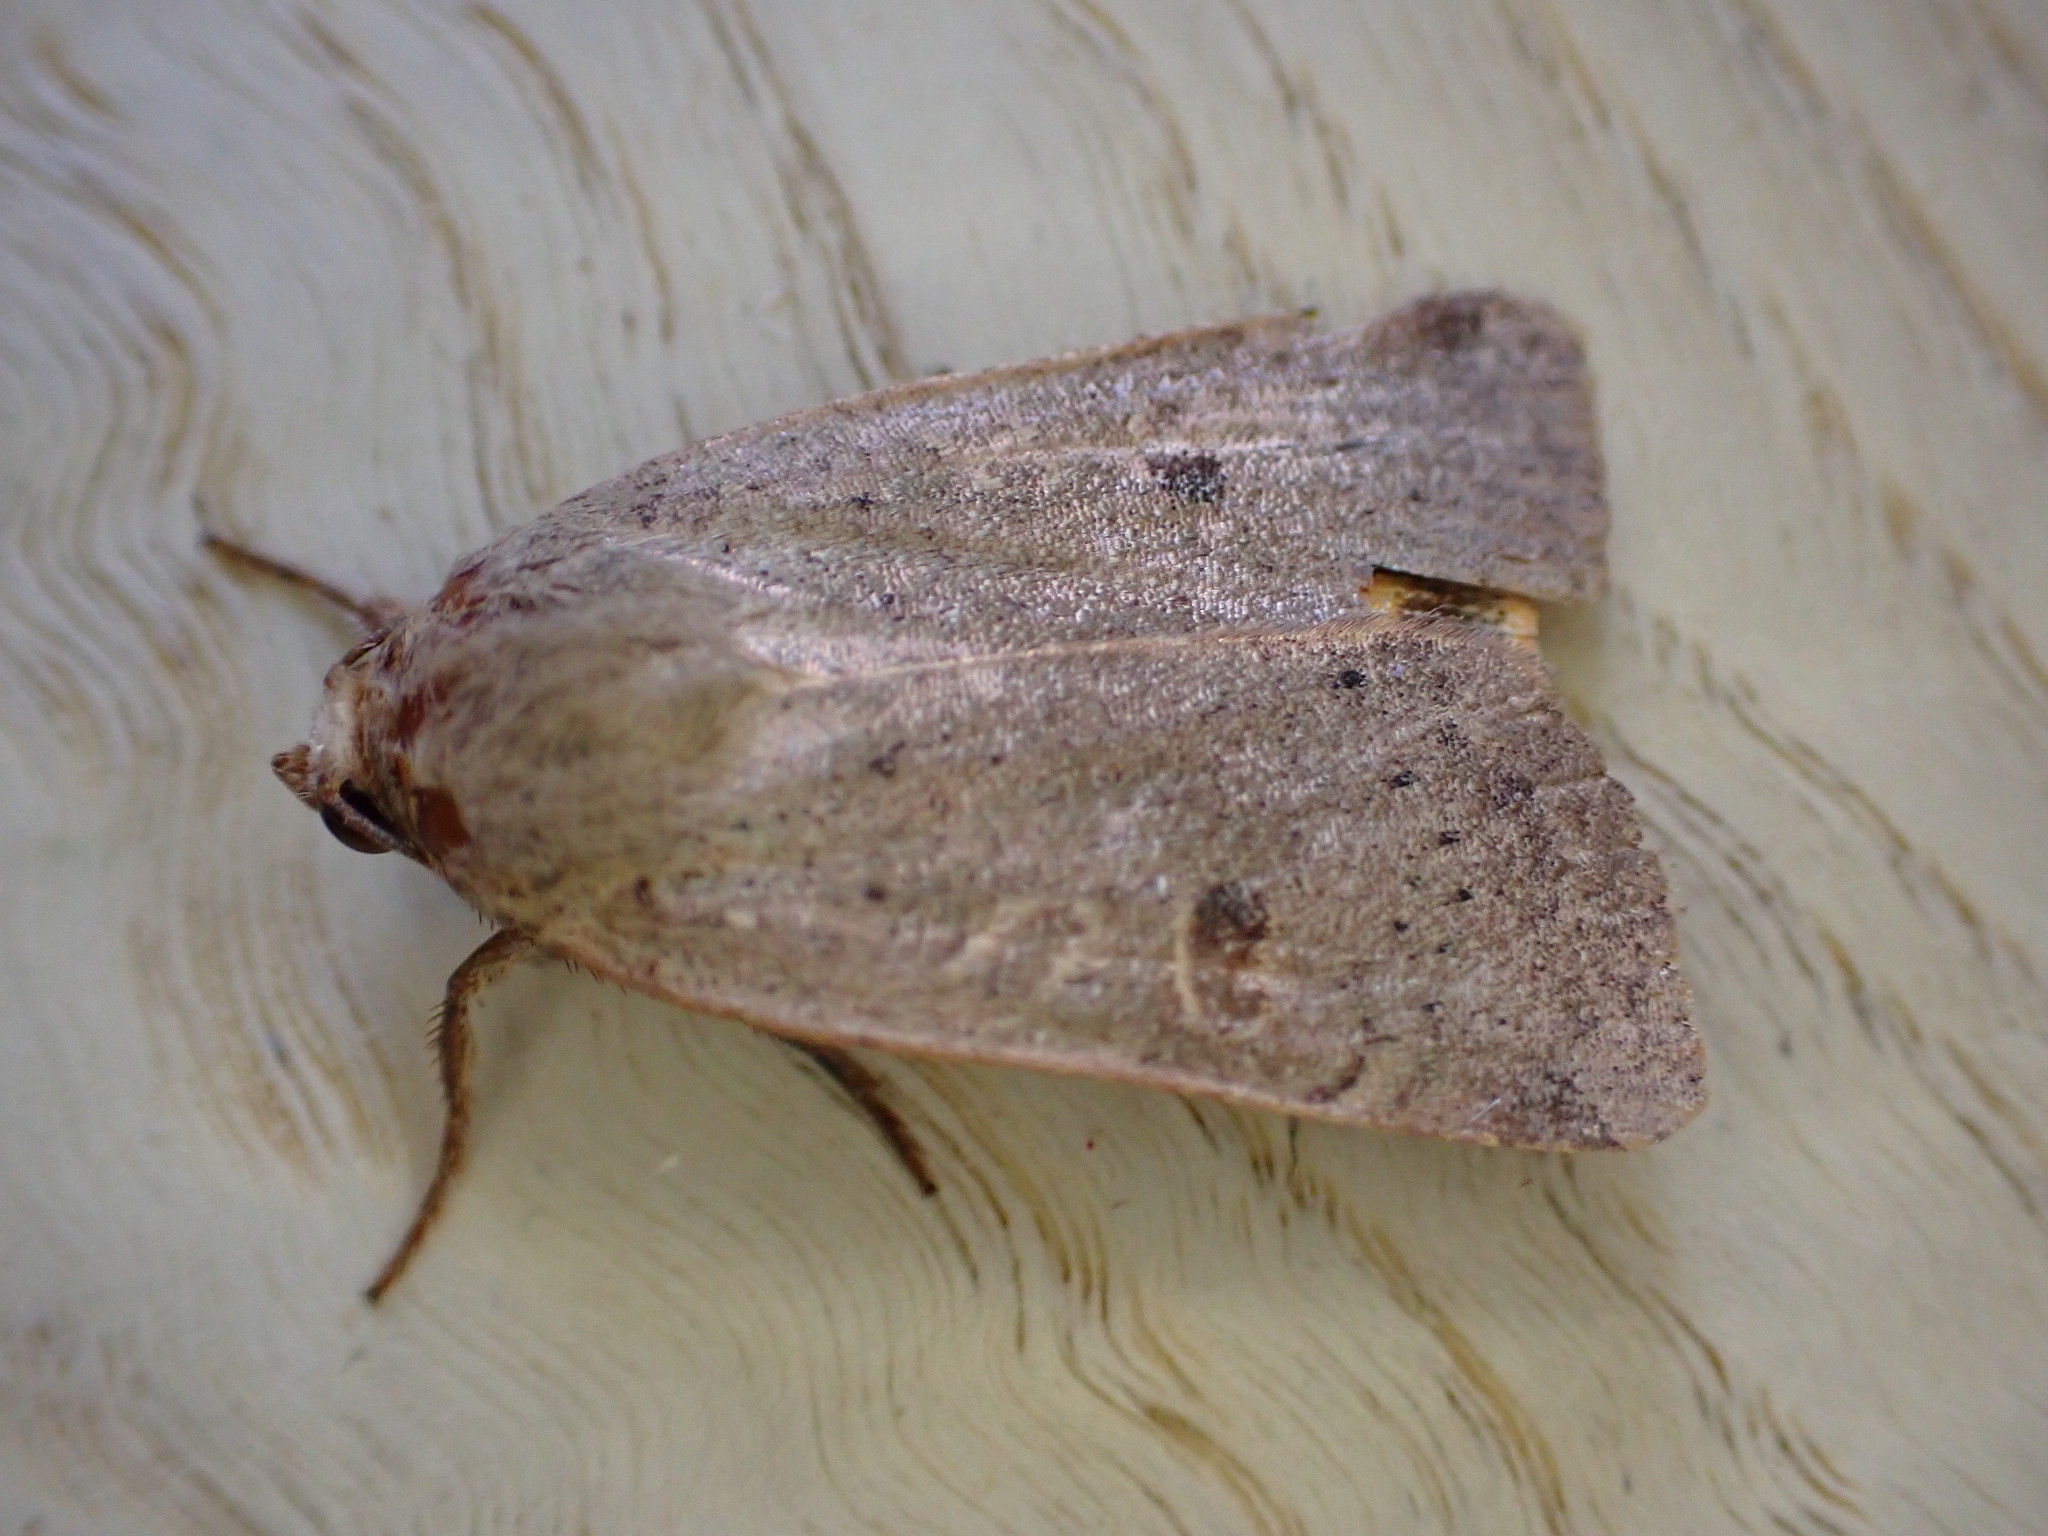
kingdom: Animalia
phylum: Arthropoda
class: Insecta
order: Lepidoptera
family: Noctuidae
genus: Noctua
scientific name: Noctua comes
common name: Lesser yellow underwing
